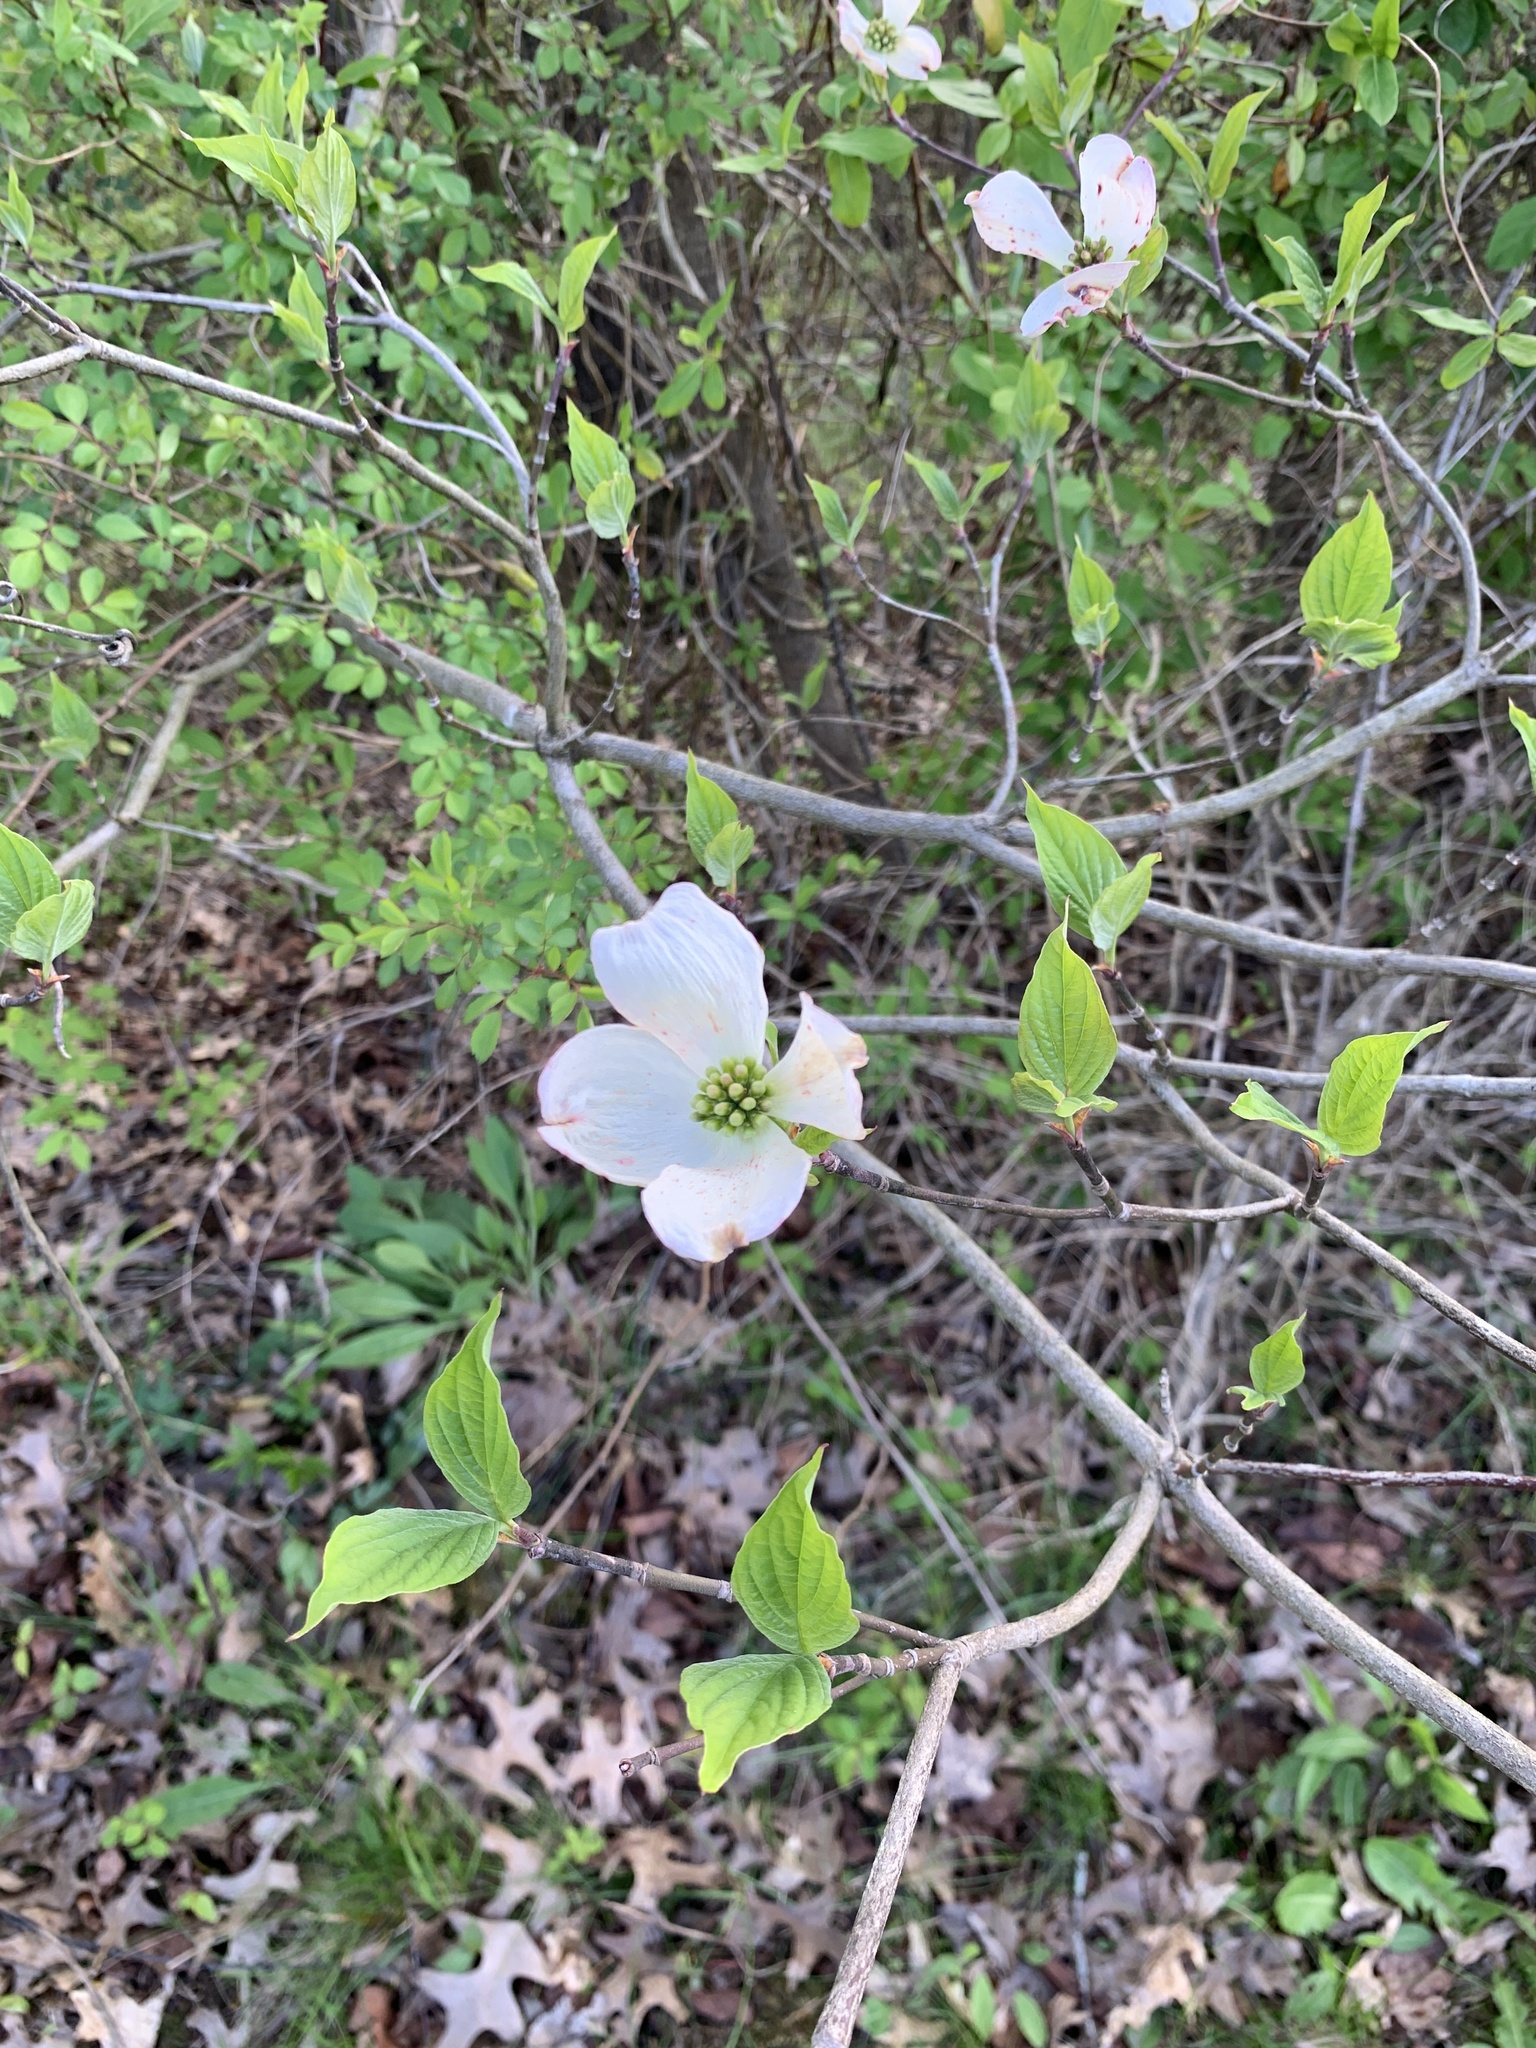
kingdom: Plantae
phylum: Tracheophyta
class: Magnoliopsida
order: Cornales
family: Cornaceae
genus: Cornus
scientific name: Cornus florida
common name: Flowering dogwood
